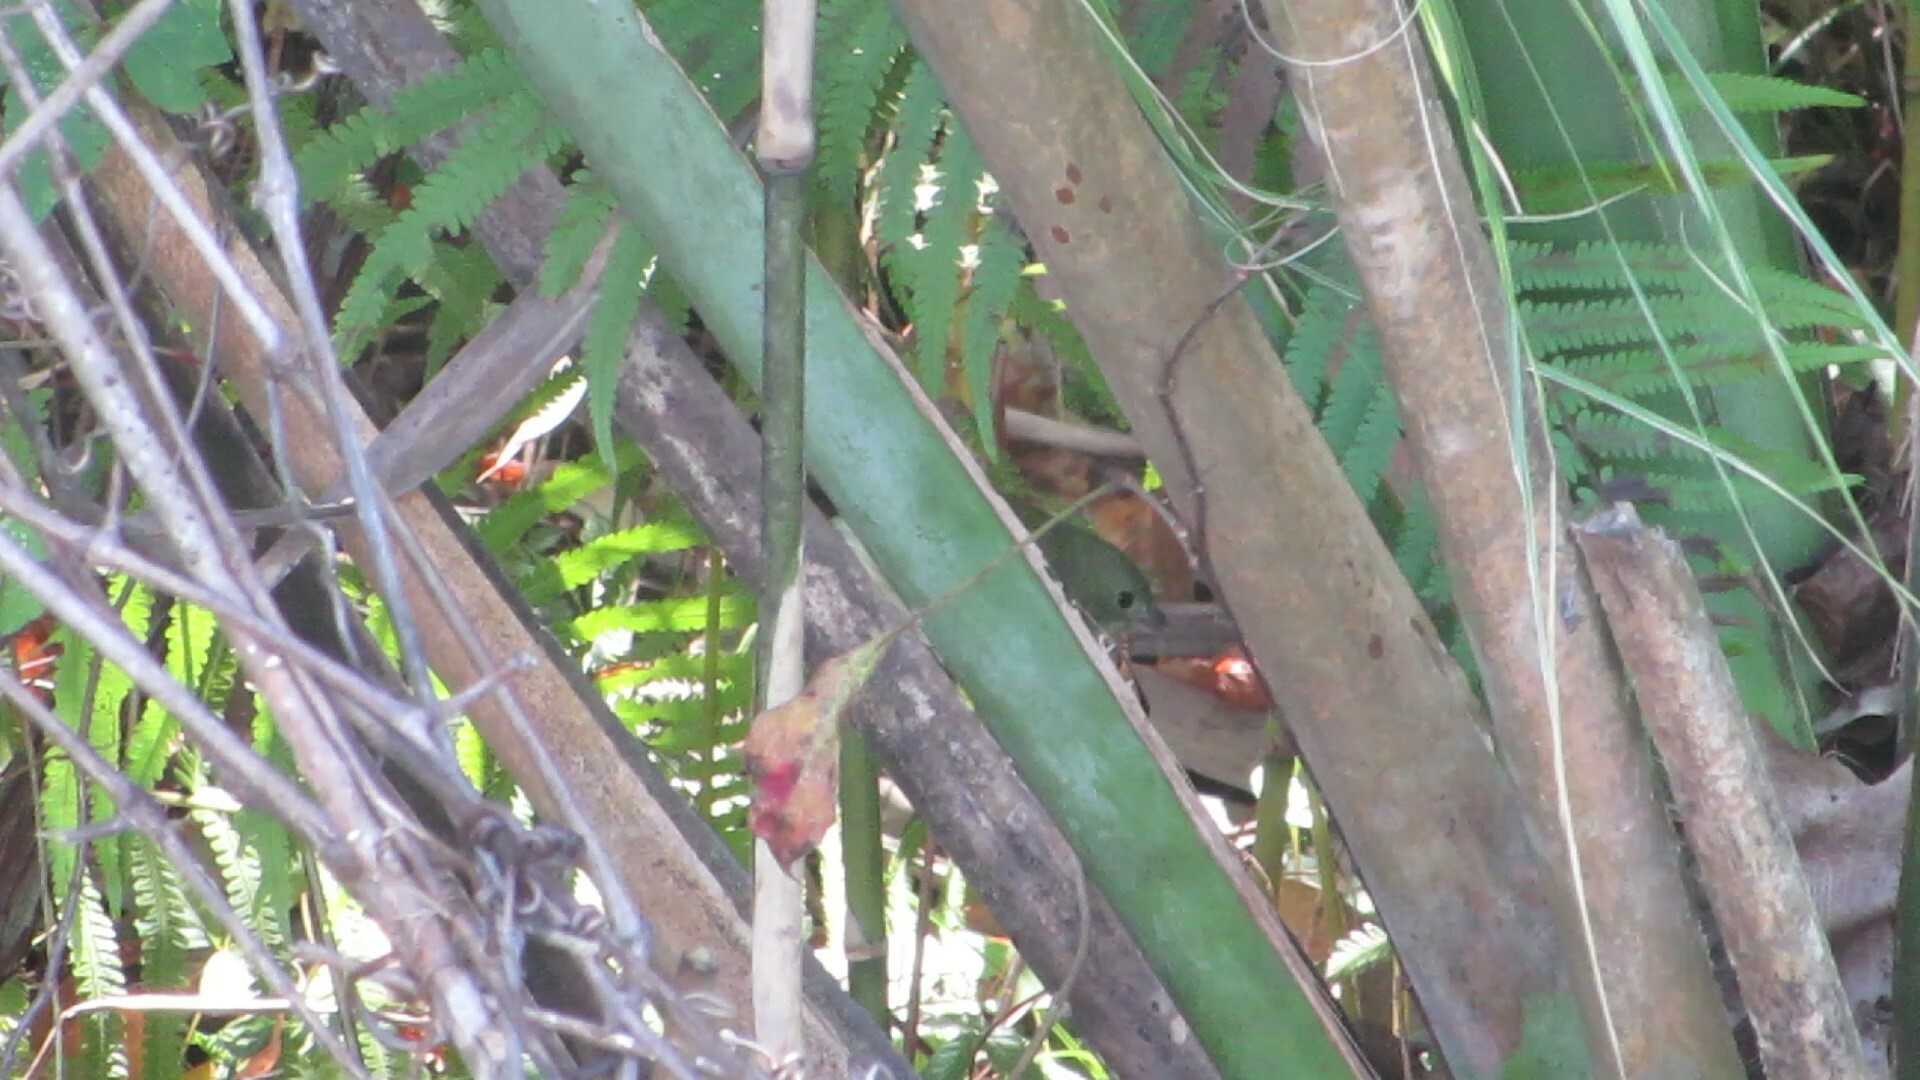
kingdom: Animalia
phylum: Chordata
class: Aves
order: Passeriformes
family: Cardinalidae
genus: Passerina
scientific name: Passerina ciris
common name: Painted bunting
